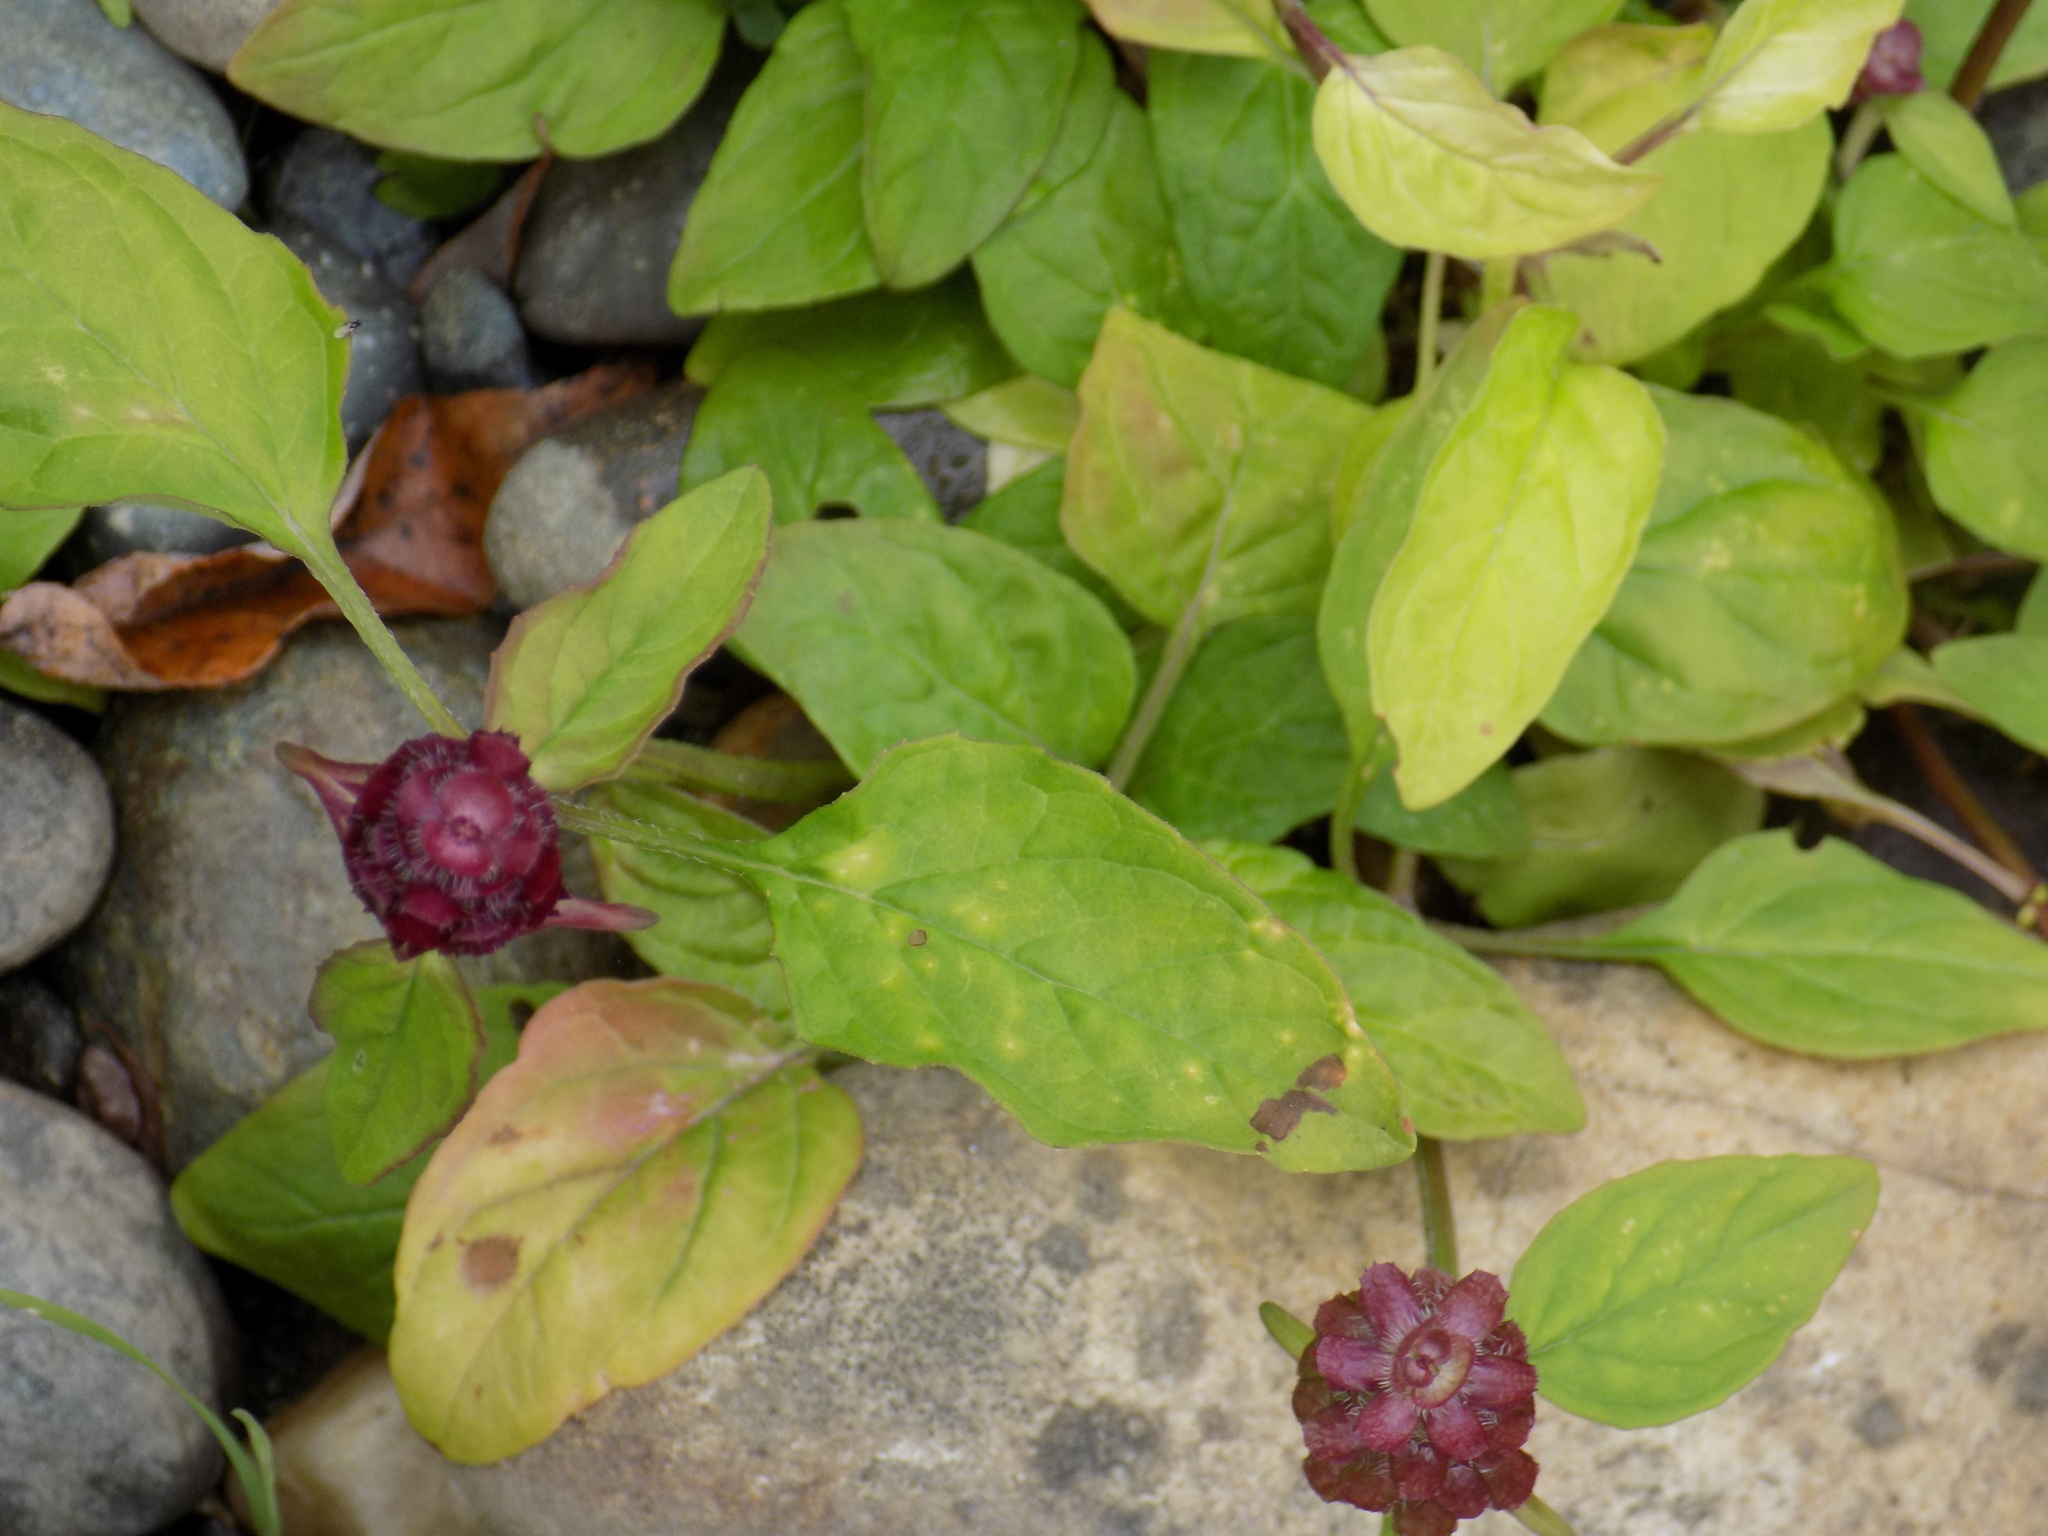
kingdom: Plantae
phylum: Tracheophyta
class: Magnoliopsida
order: Lamiales
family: Lamiaceae
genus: Prunella
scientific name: Prunella vulgaris
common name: Heal-all
